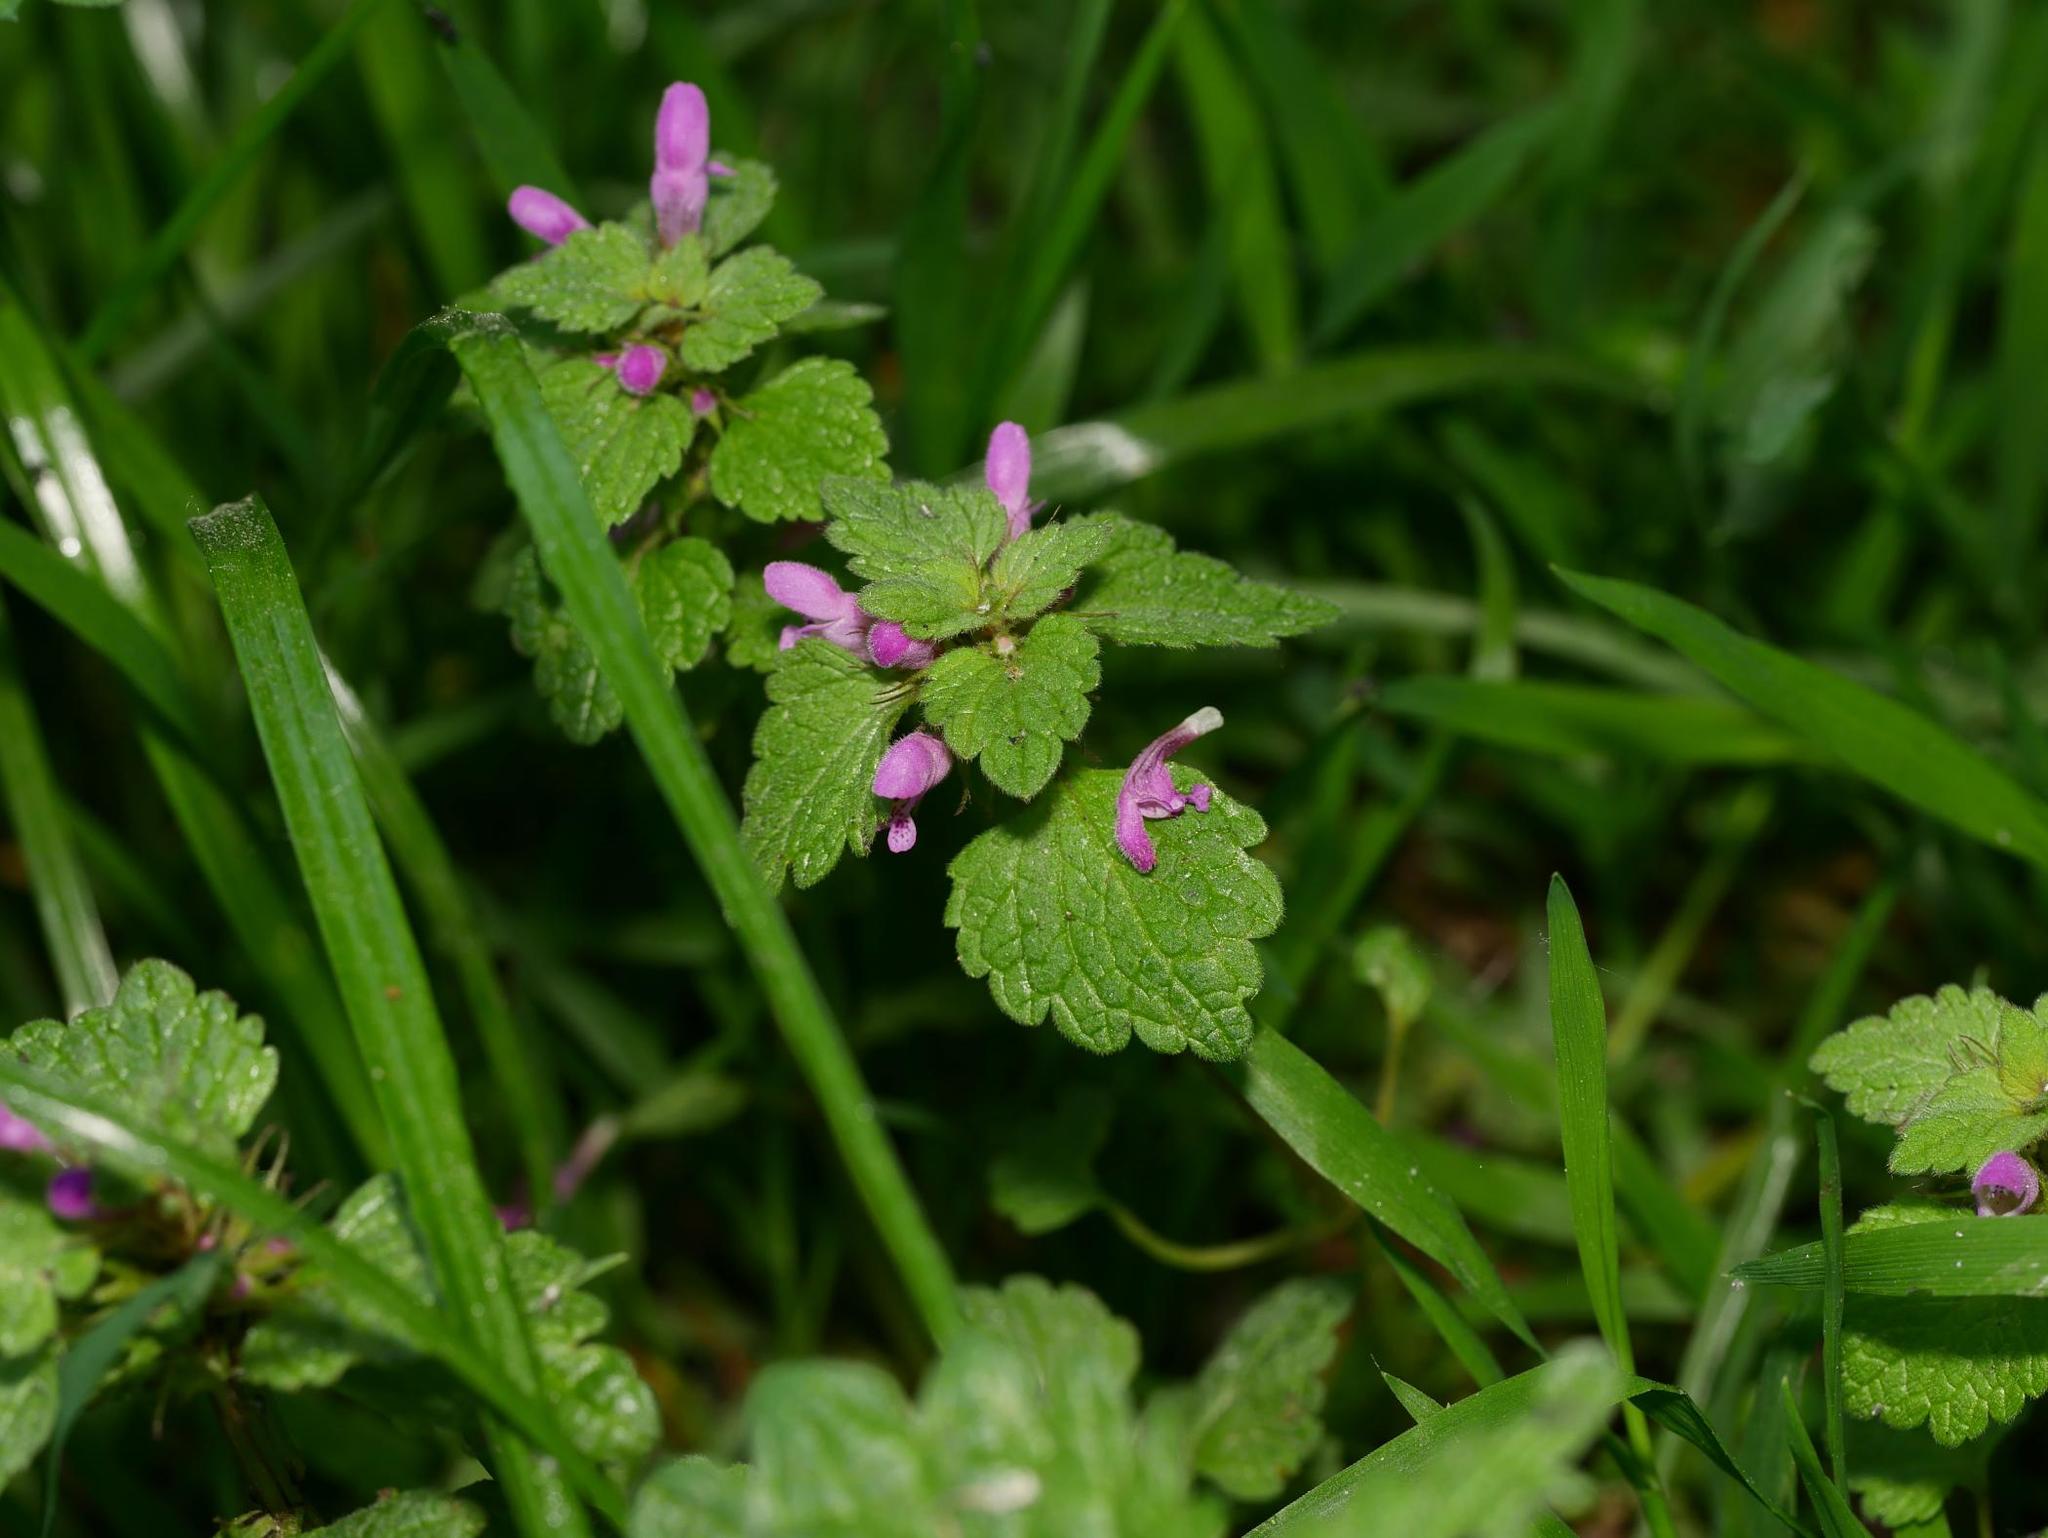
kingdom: Plantae
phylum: Tracheophyta
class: Magnoliopsida
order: Lamiales
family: Lamiaceae
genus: Lamium
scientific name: Lamium purpureum
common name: Red dead-nettle
